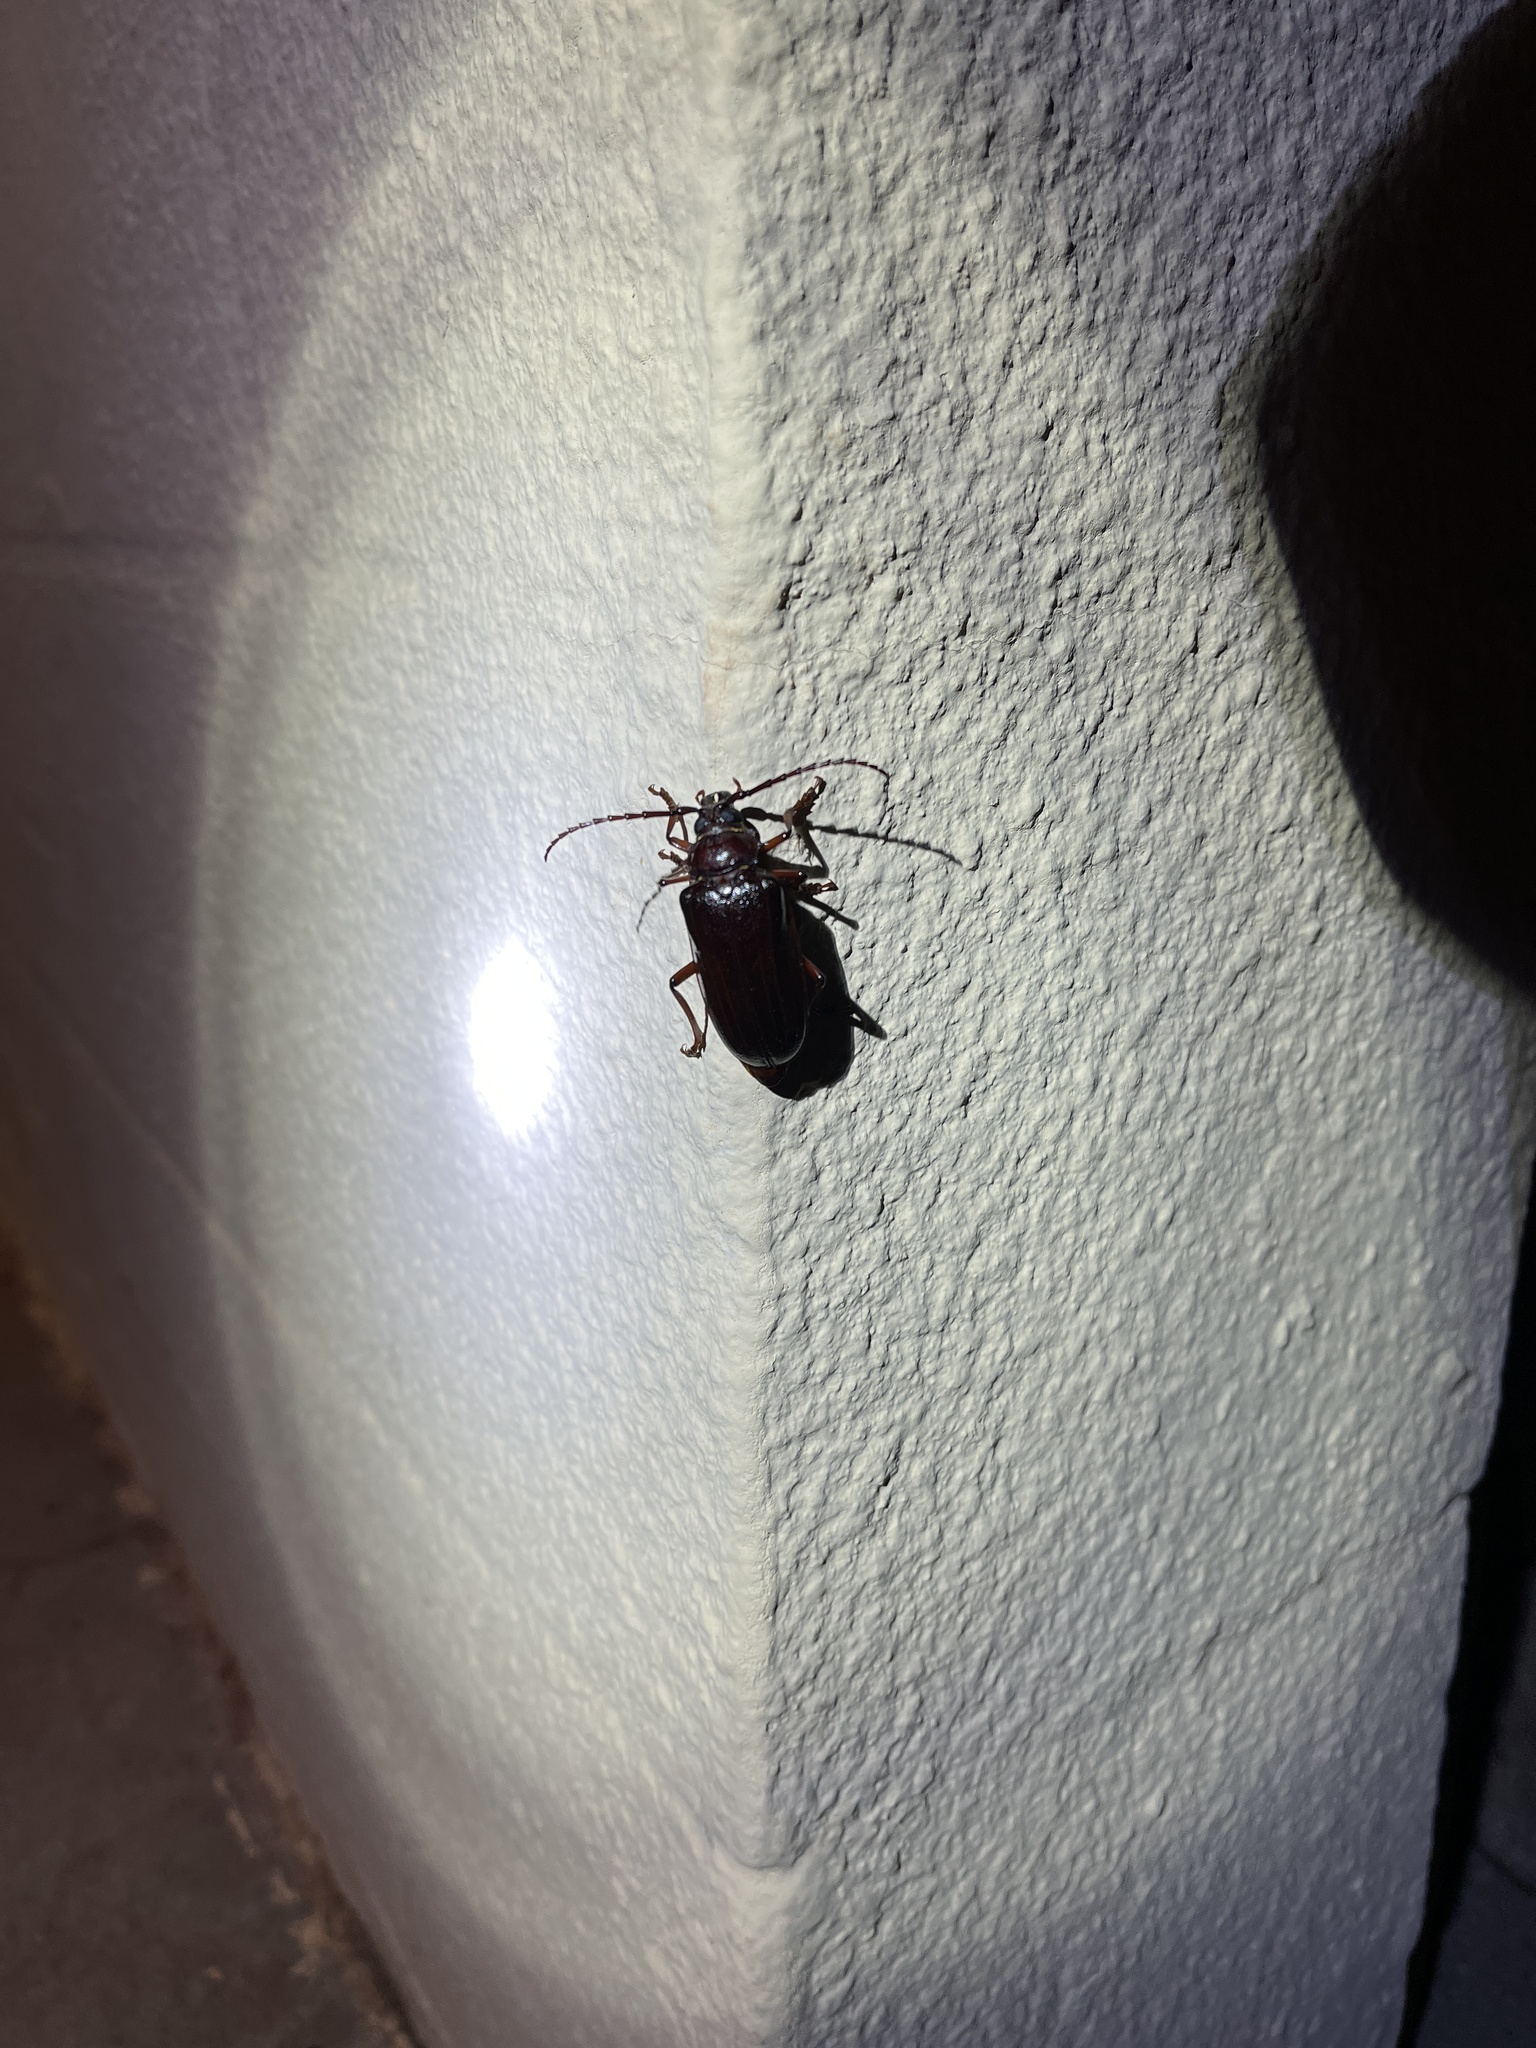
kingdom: Animalia
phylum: Arthropoda
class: Insecta
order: Coleoptera
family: Cerambycidae
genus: Prionus
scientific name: Prionus californicus
